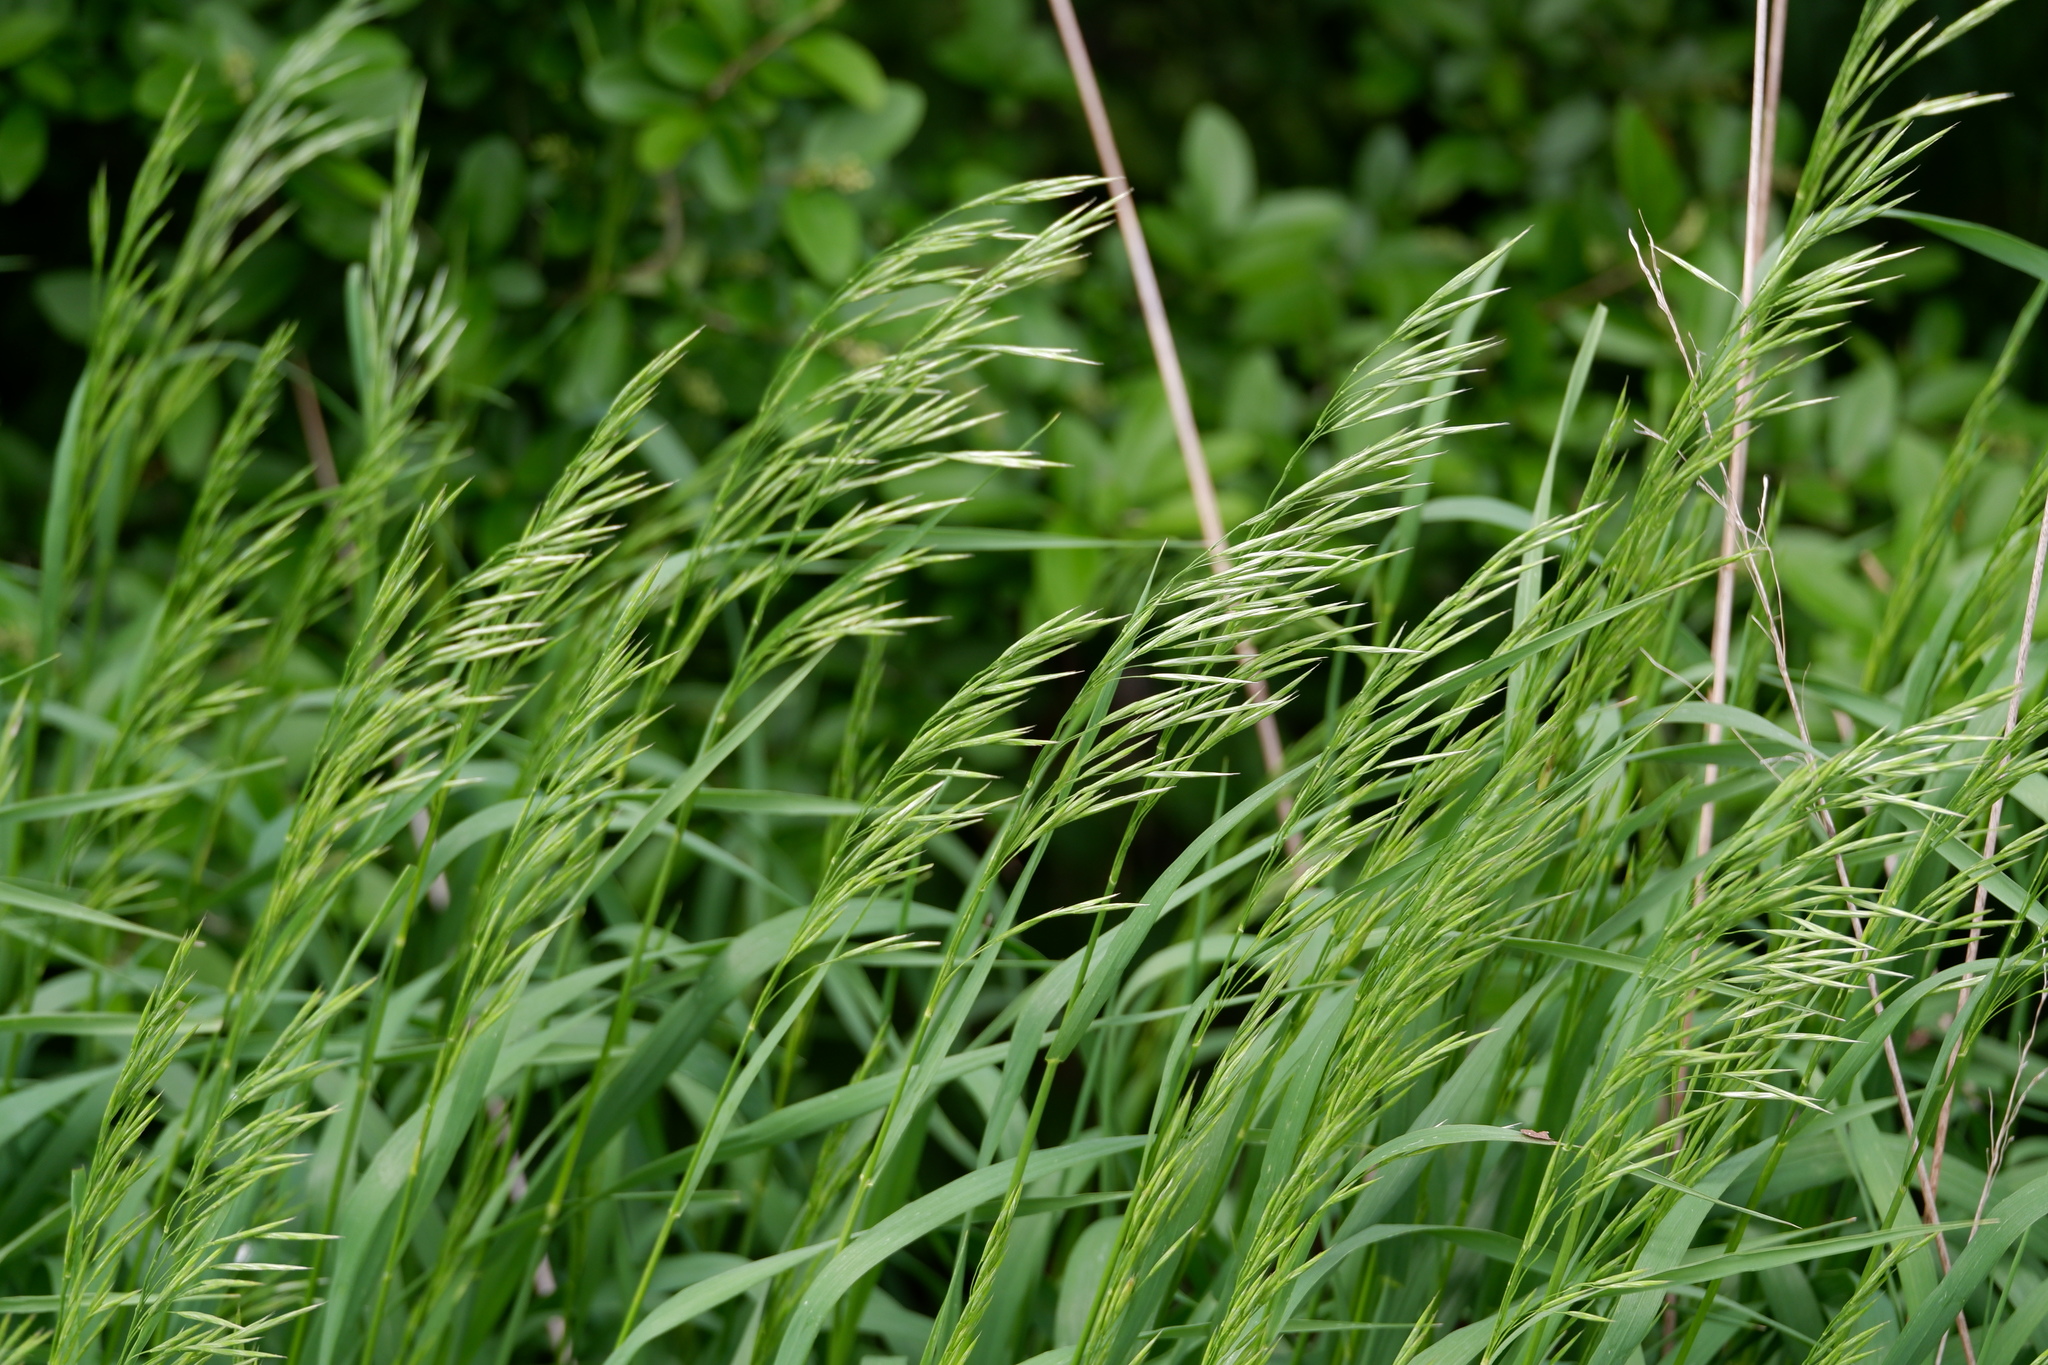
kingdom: Plantae
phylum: Tracheophyta
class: Liliopsida
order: Poales
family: Poaceae
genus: Bromus
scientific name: Bromus inermis
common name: Smooth brome
